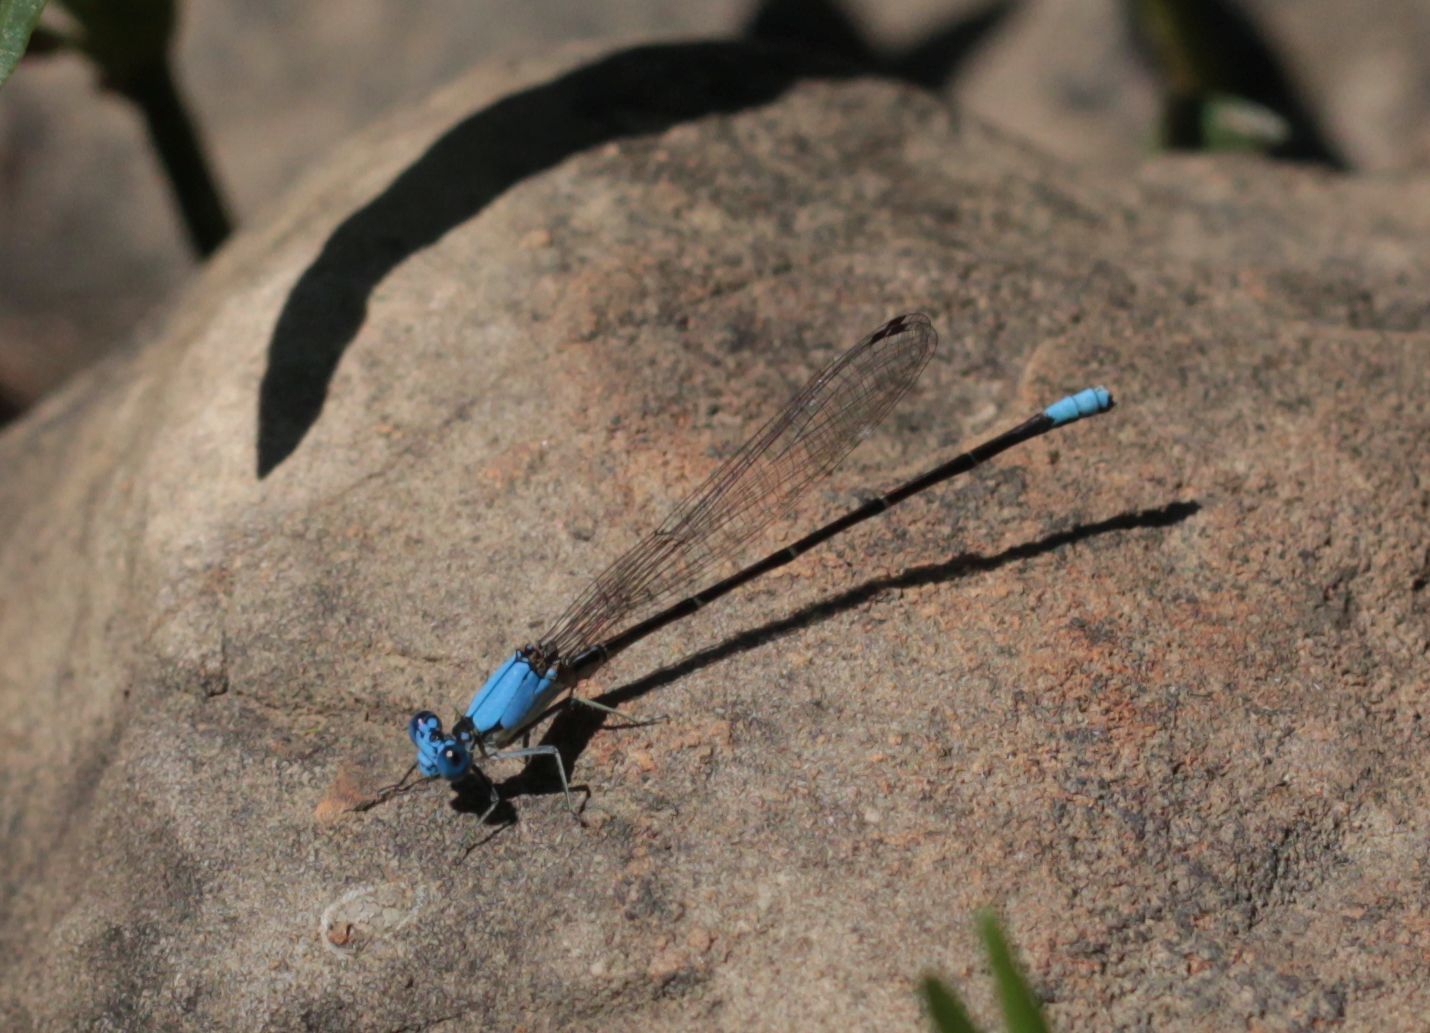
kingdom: Animalia
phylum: Arthropoda
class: Insecta
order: Odonata
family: Coenagrionidae
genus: Argia
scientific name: Argia apicalis
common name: Blue-fronted dancer
